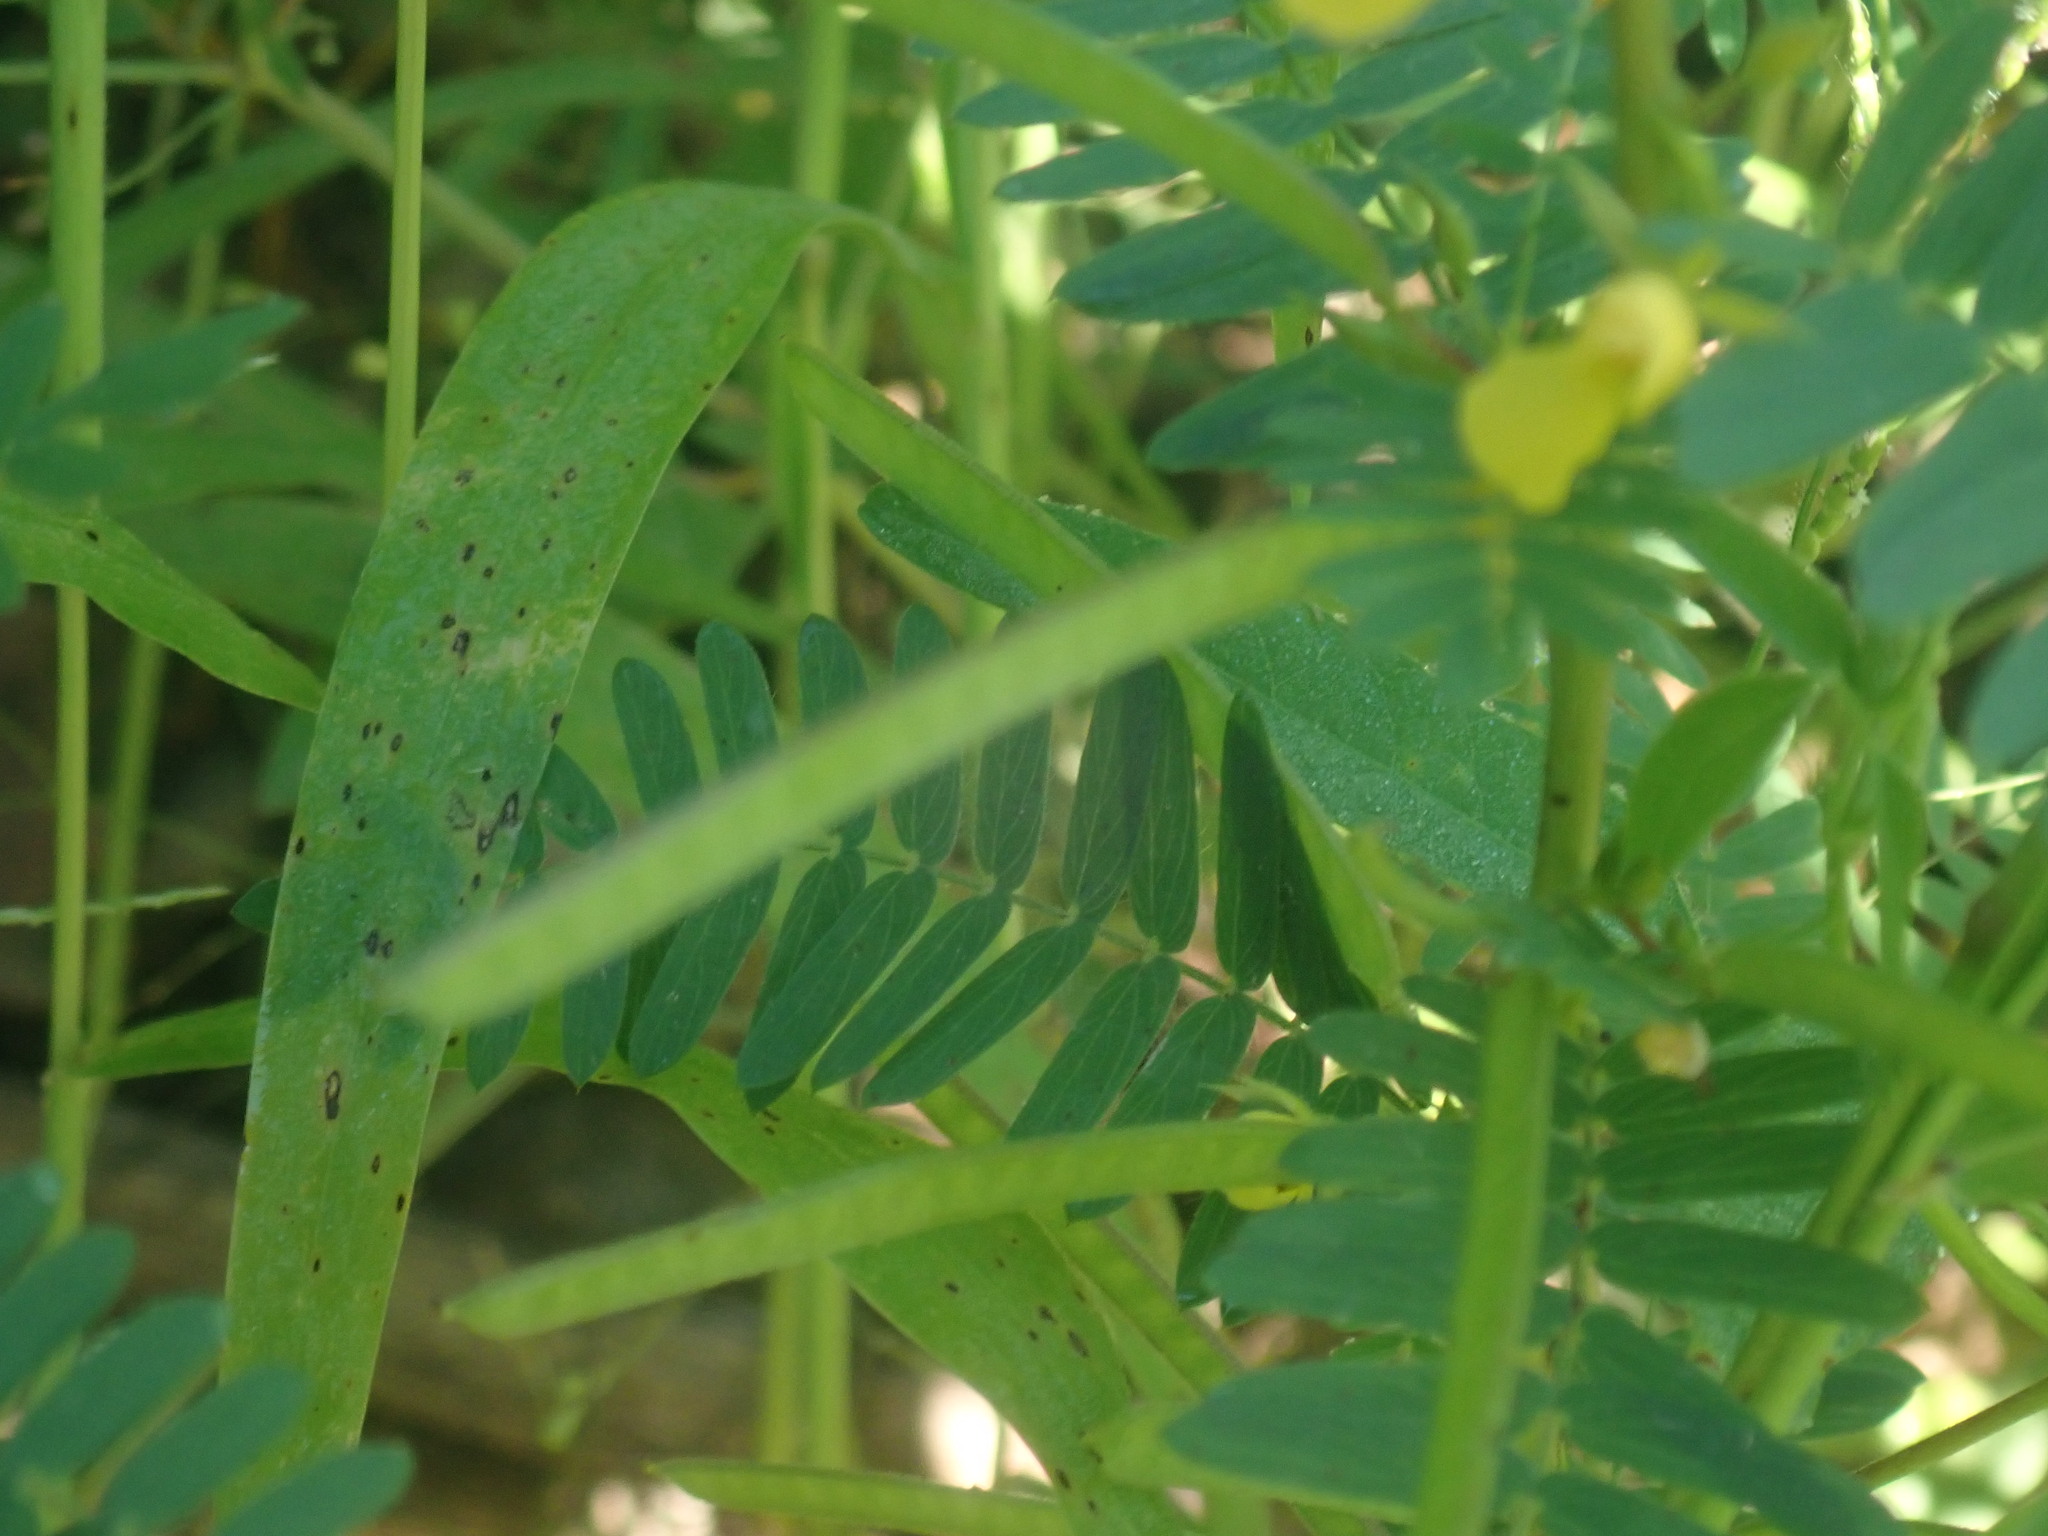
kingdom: Plantae
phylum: Tracheophyta
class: Magnoliopsida
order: Fabales
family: Fabaceae
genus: Chamaecrista
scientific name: Chamaecrista nictitans
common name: Sensitive cassia
